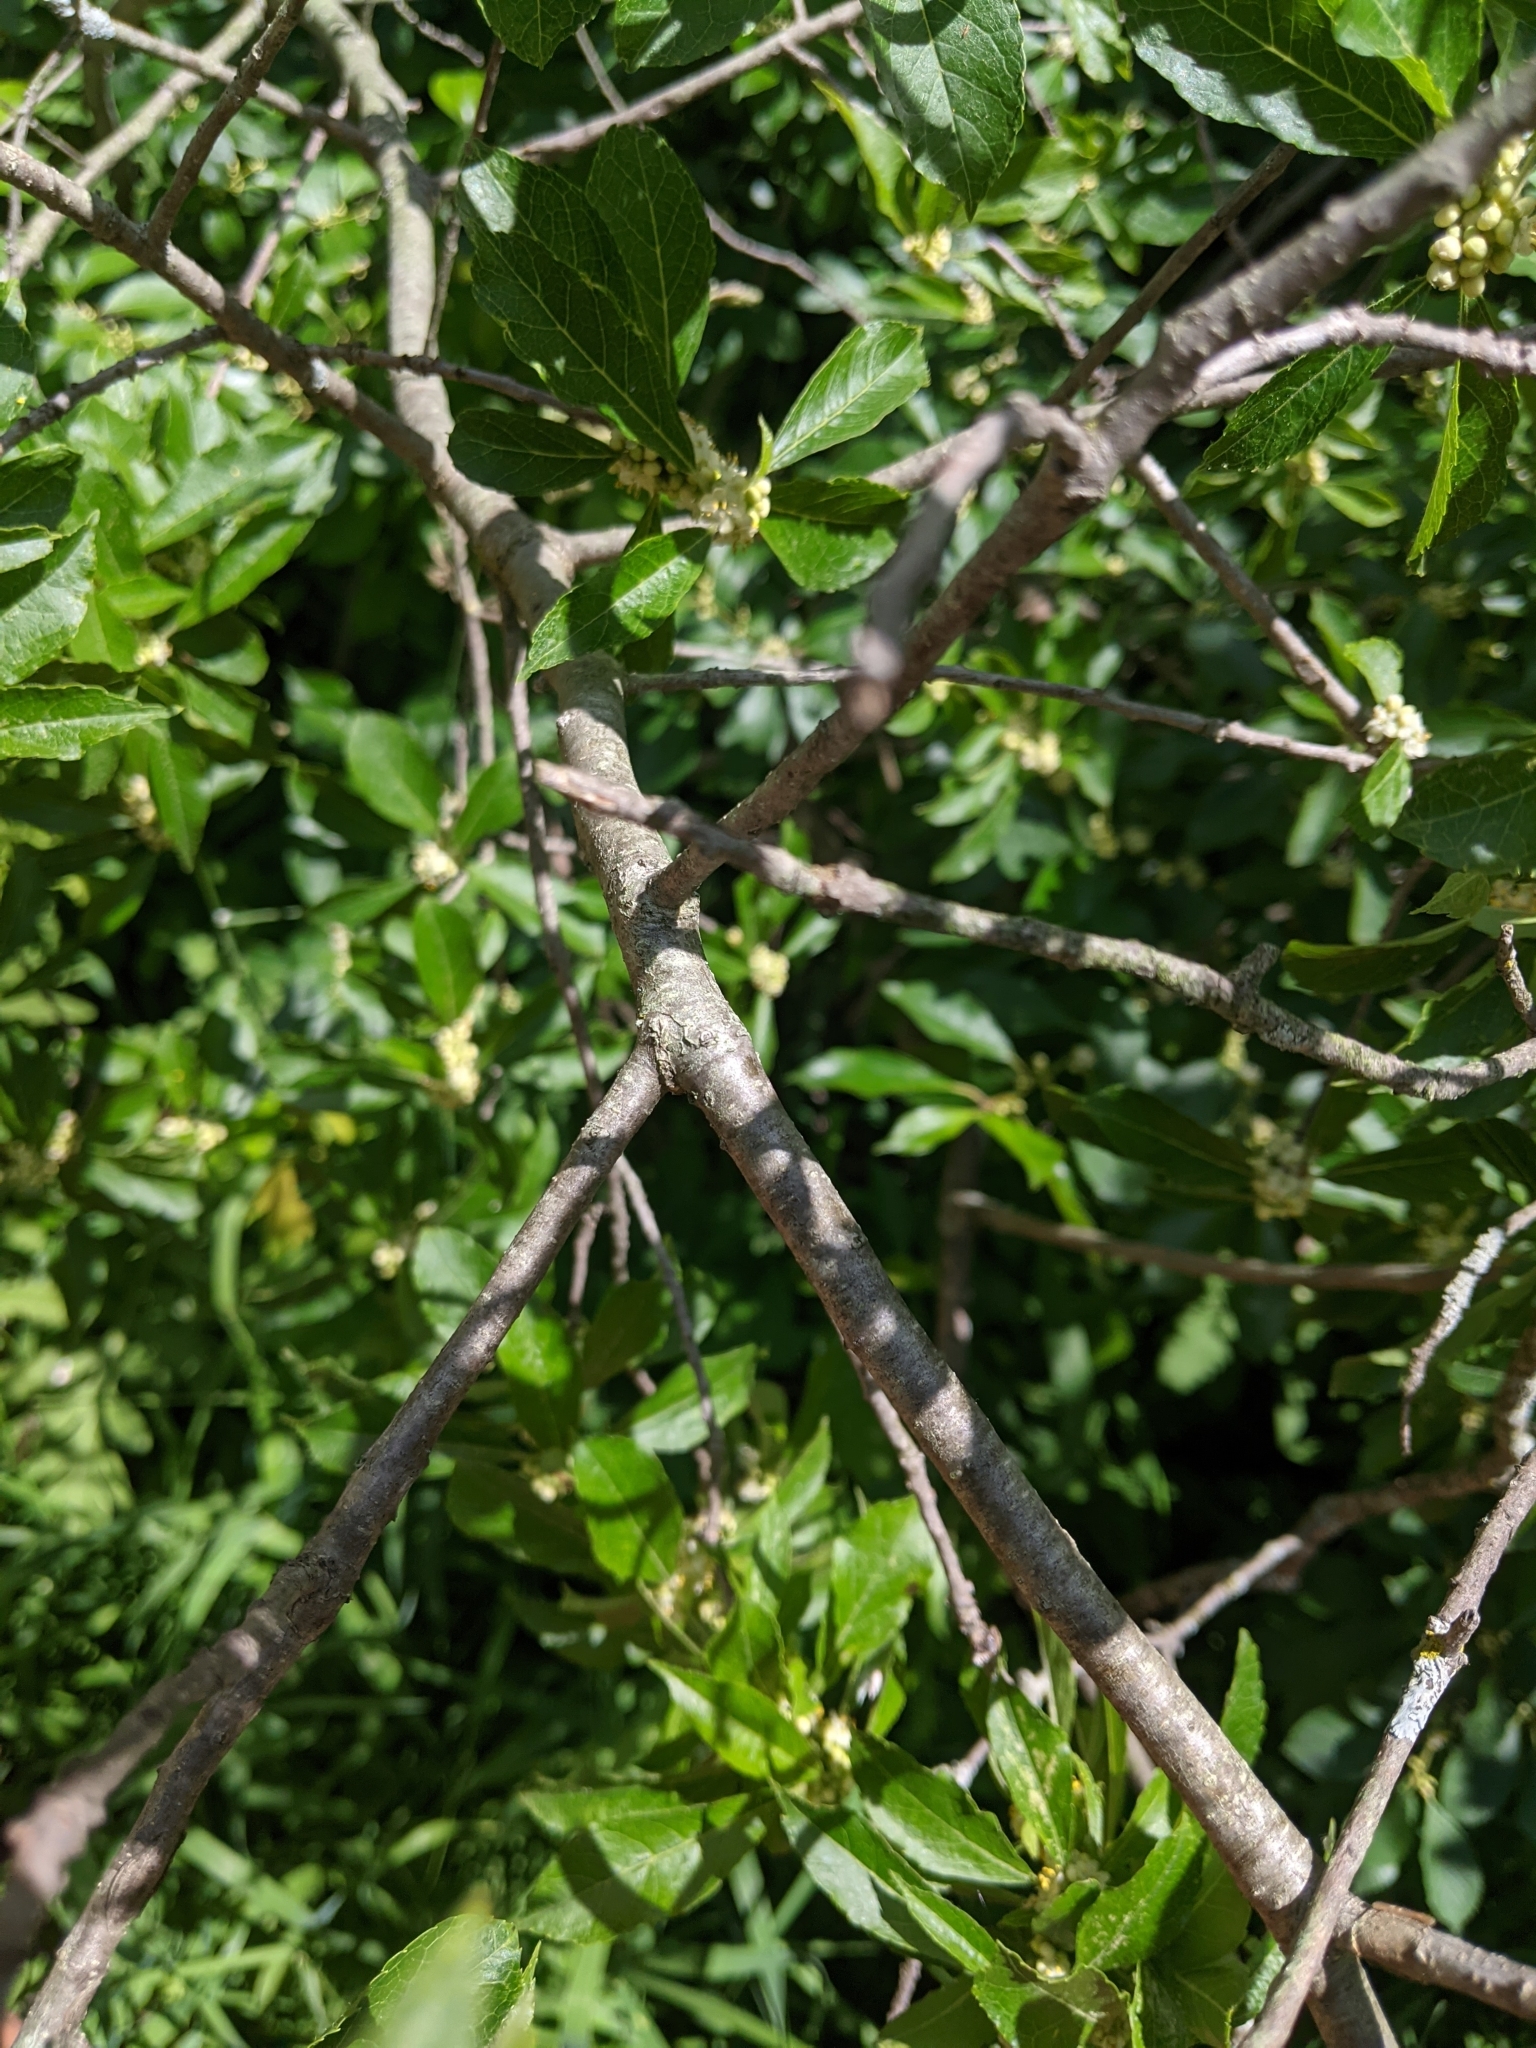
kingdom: Plantae
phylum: Tracheophyta
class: Magnoliopsida
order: Aquifoliales
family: Aquifoliaceae
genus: Ilex
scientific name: Ilex verticillata
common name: Virginia winterberry
